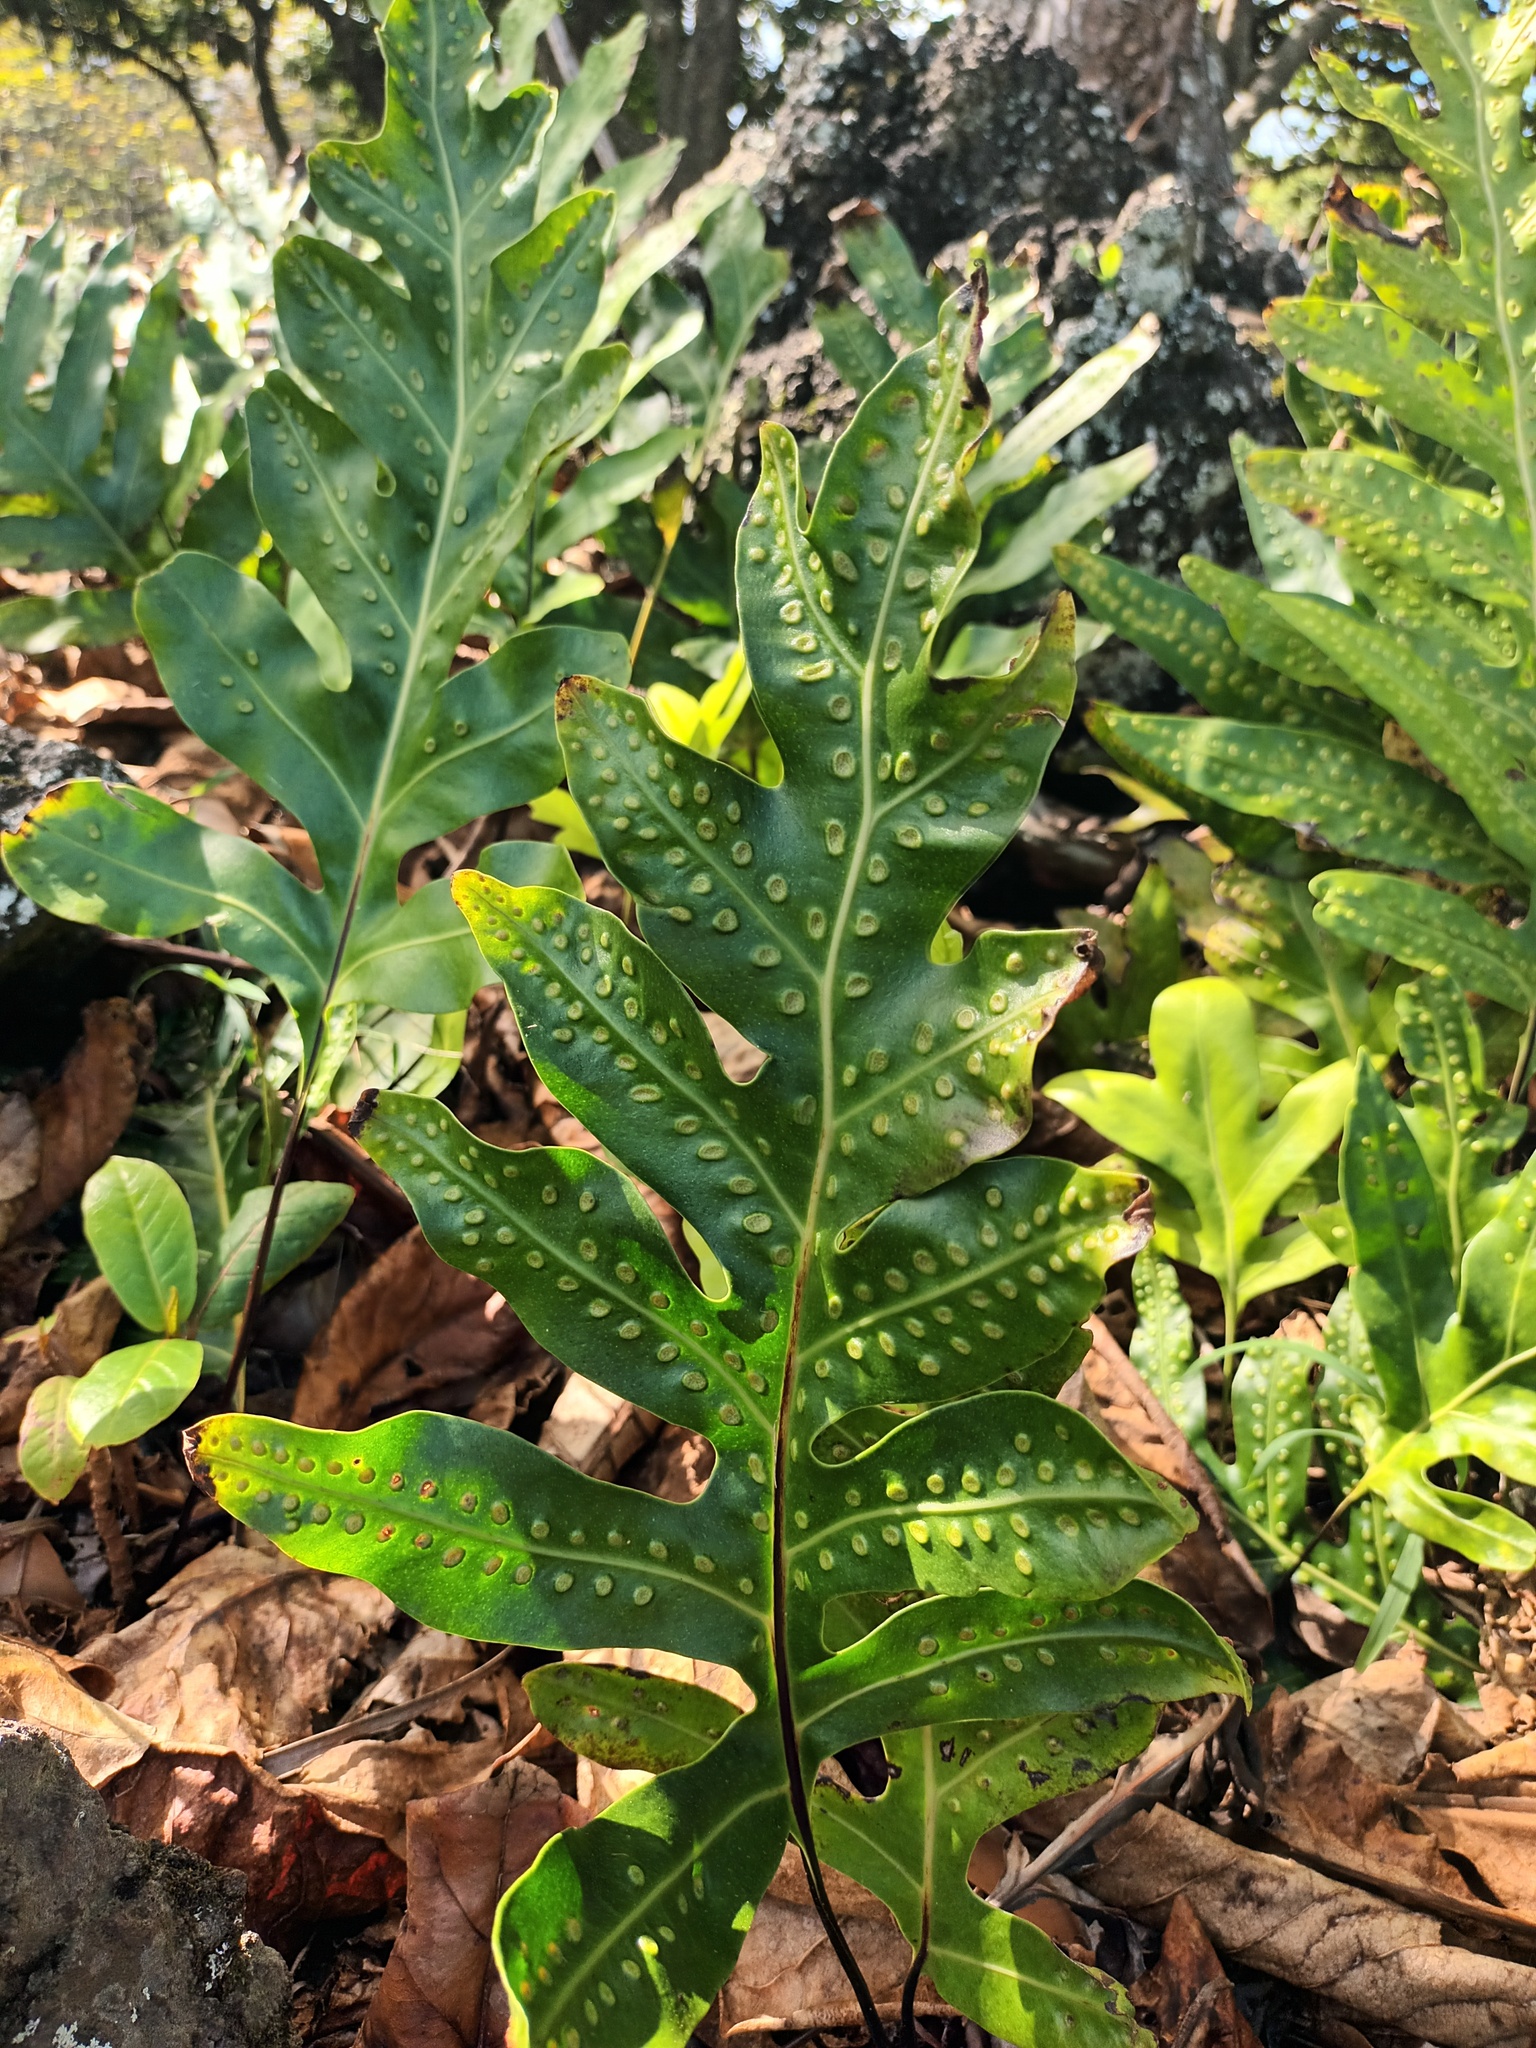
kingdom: Plantae
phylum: Tracheophyta
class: Polypodiopsida
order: Polypodiales
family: Polypodiaceae
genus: Microsorum
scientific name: Microsorum grossum
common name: Musk fern
